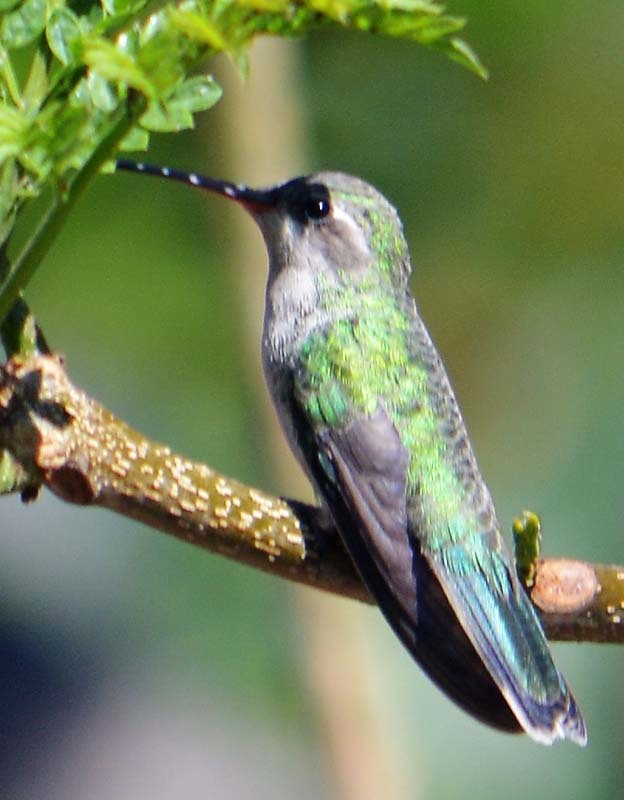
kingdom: Animalia
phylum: Chordata
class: Aves
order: Apodiformes
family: Trochilidae
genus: Cynanthus
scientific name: Cynanthus latirostris
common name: Broad-billed hummingbird
